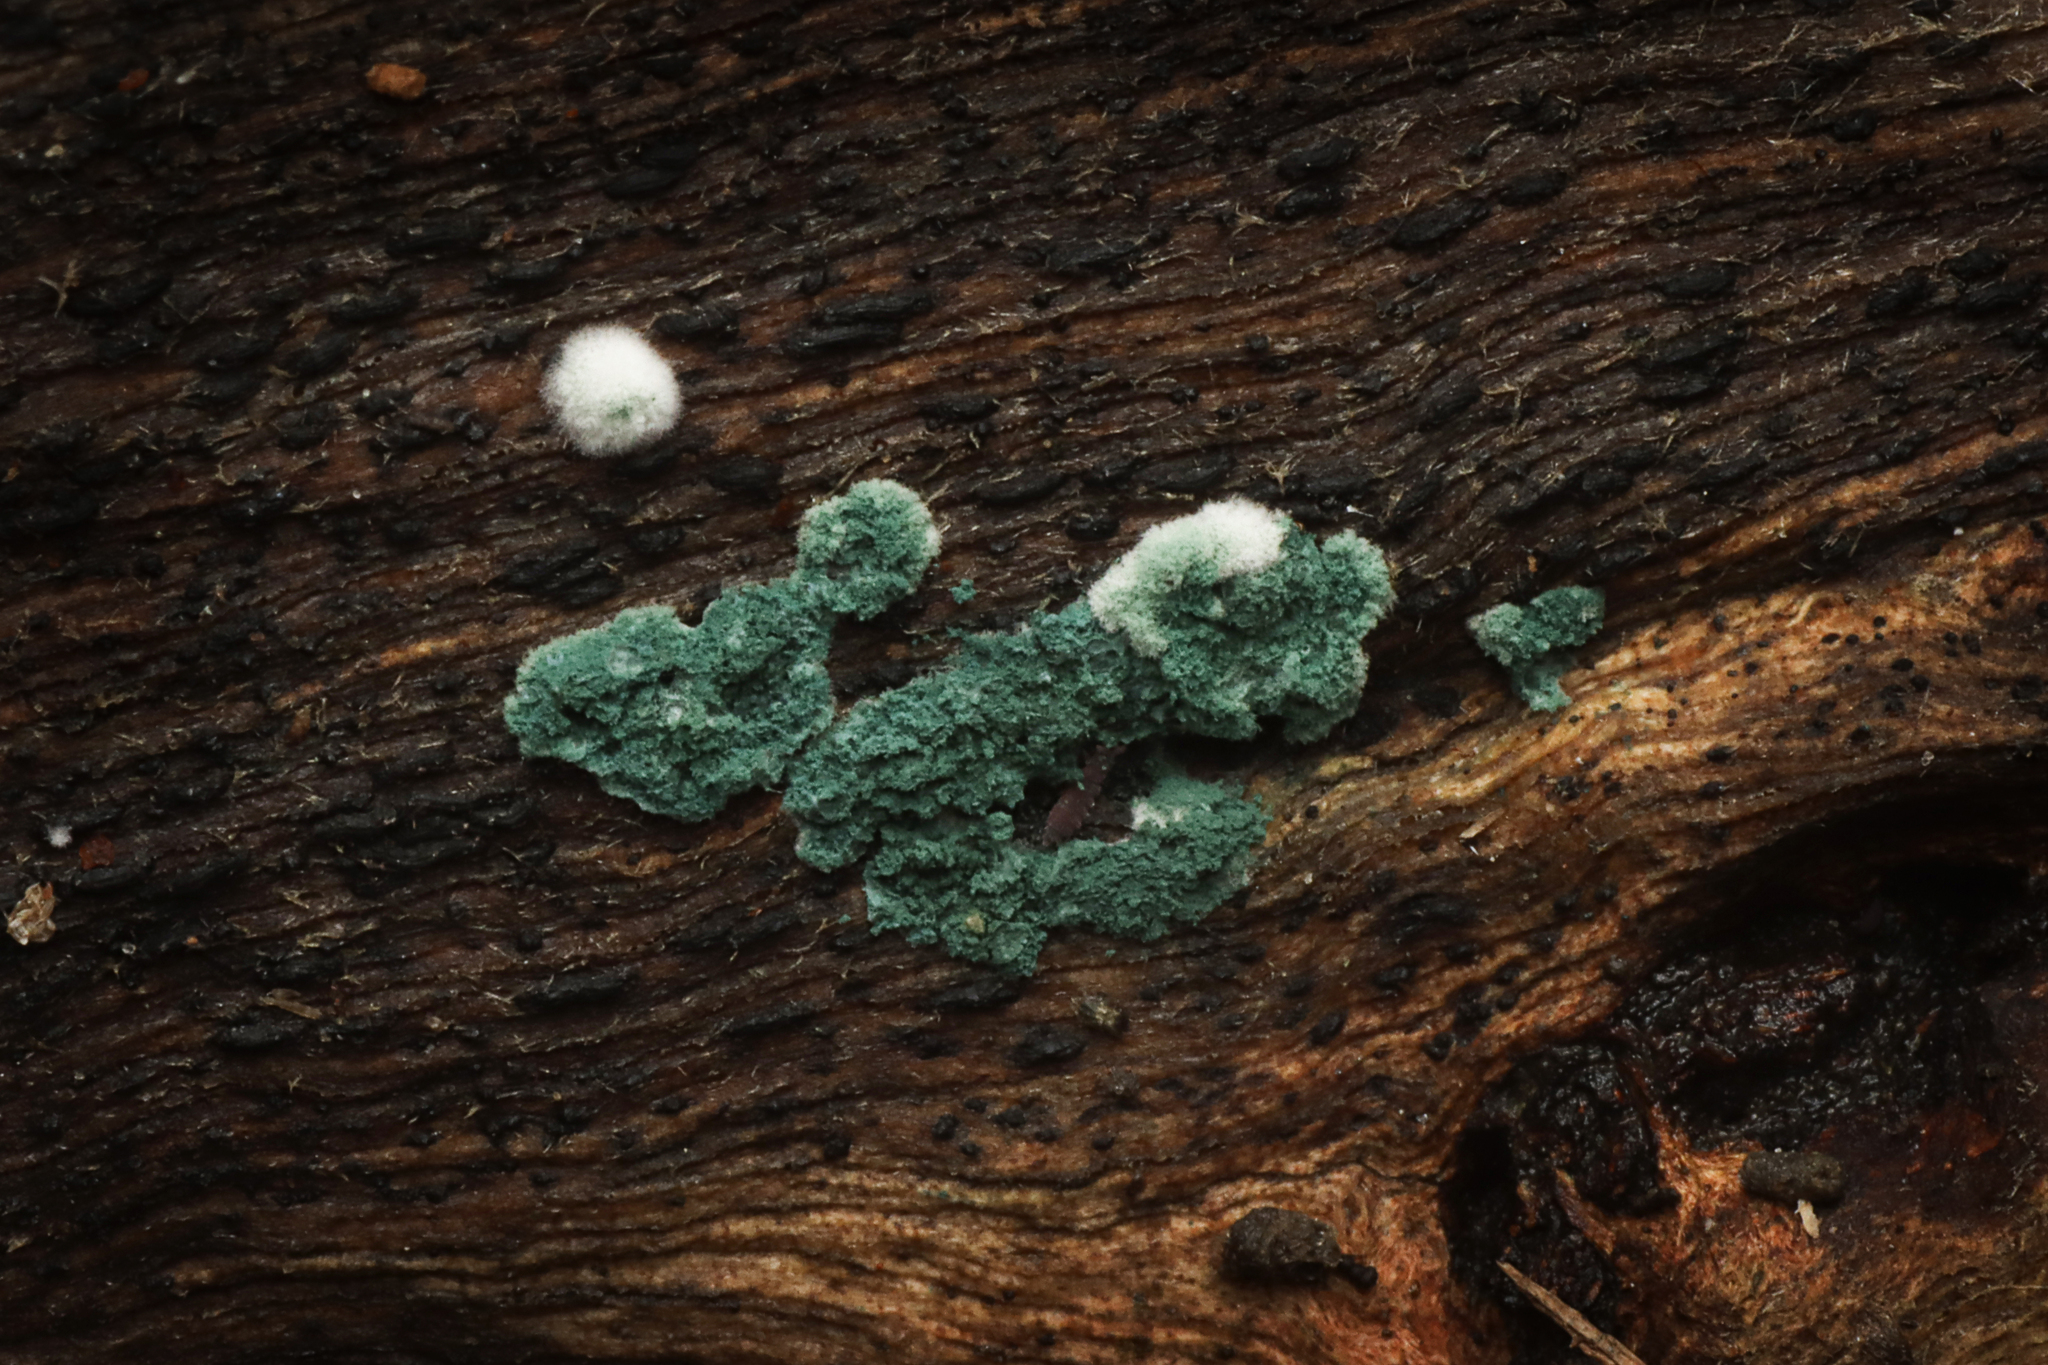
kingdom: Fungi
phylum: Ascomycota
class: Sordariomycetes
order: Hypocreales
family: Hypocreaceae
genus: Trichoderma
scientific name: Trichoderma viride
